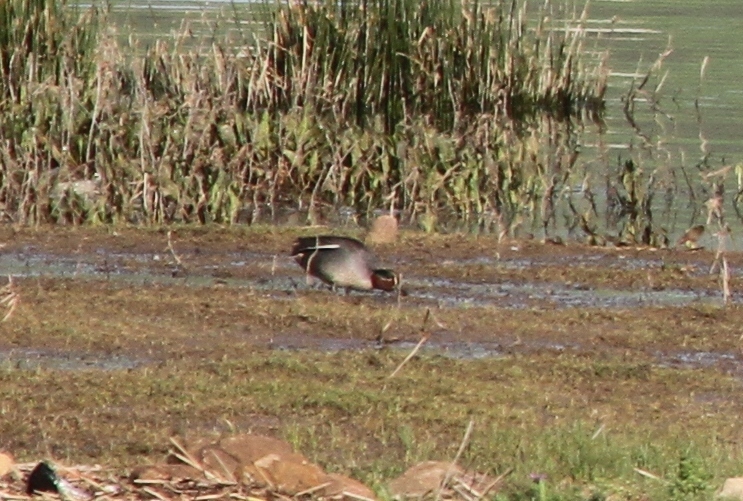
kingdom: Animalia
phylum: Chordata
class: Aves
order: Anseriformes
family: Anatidae
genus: Anas
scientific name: Anas crecca
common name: Eurasian teal
